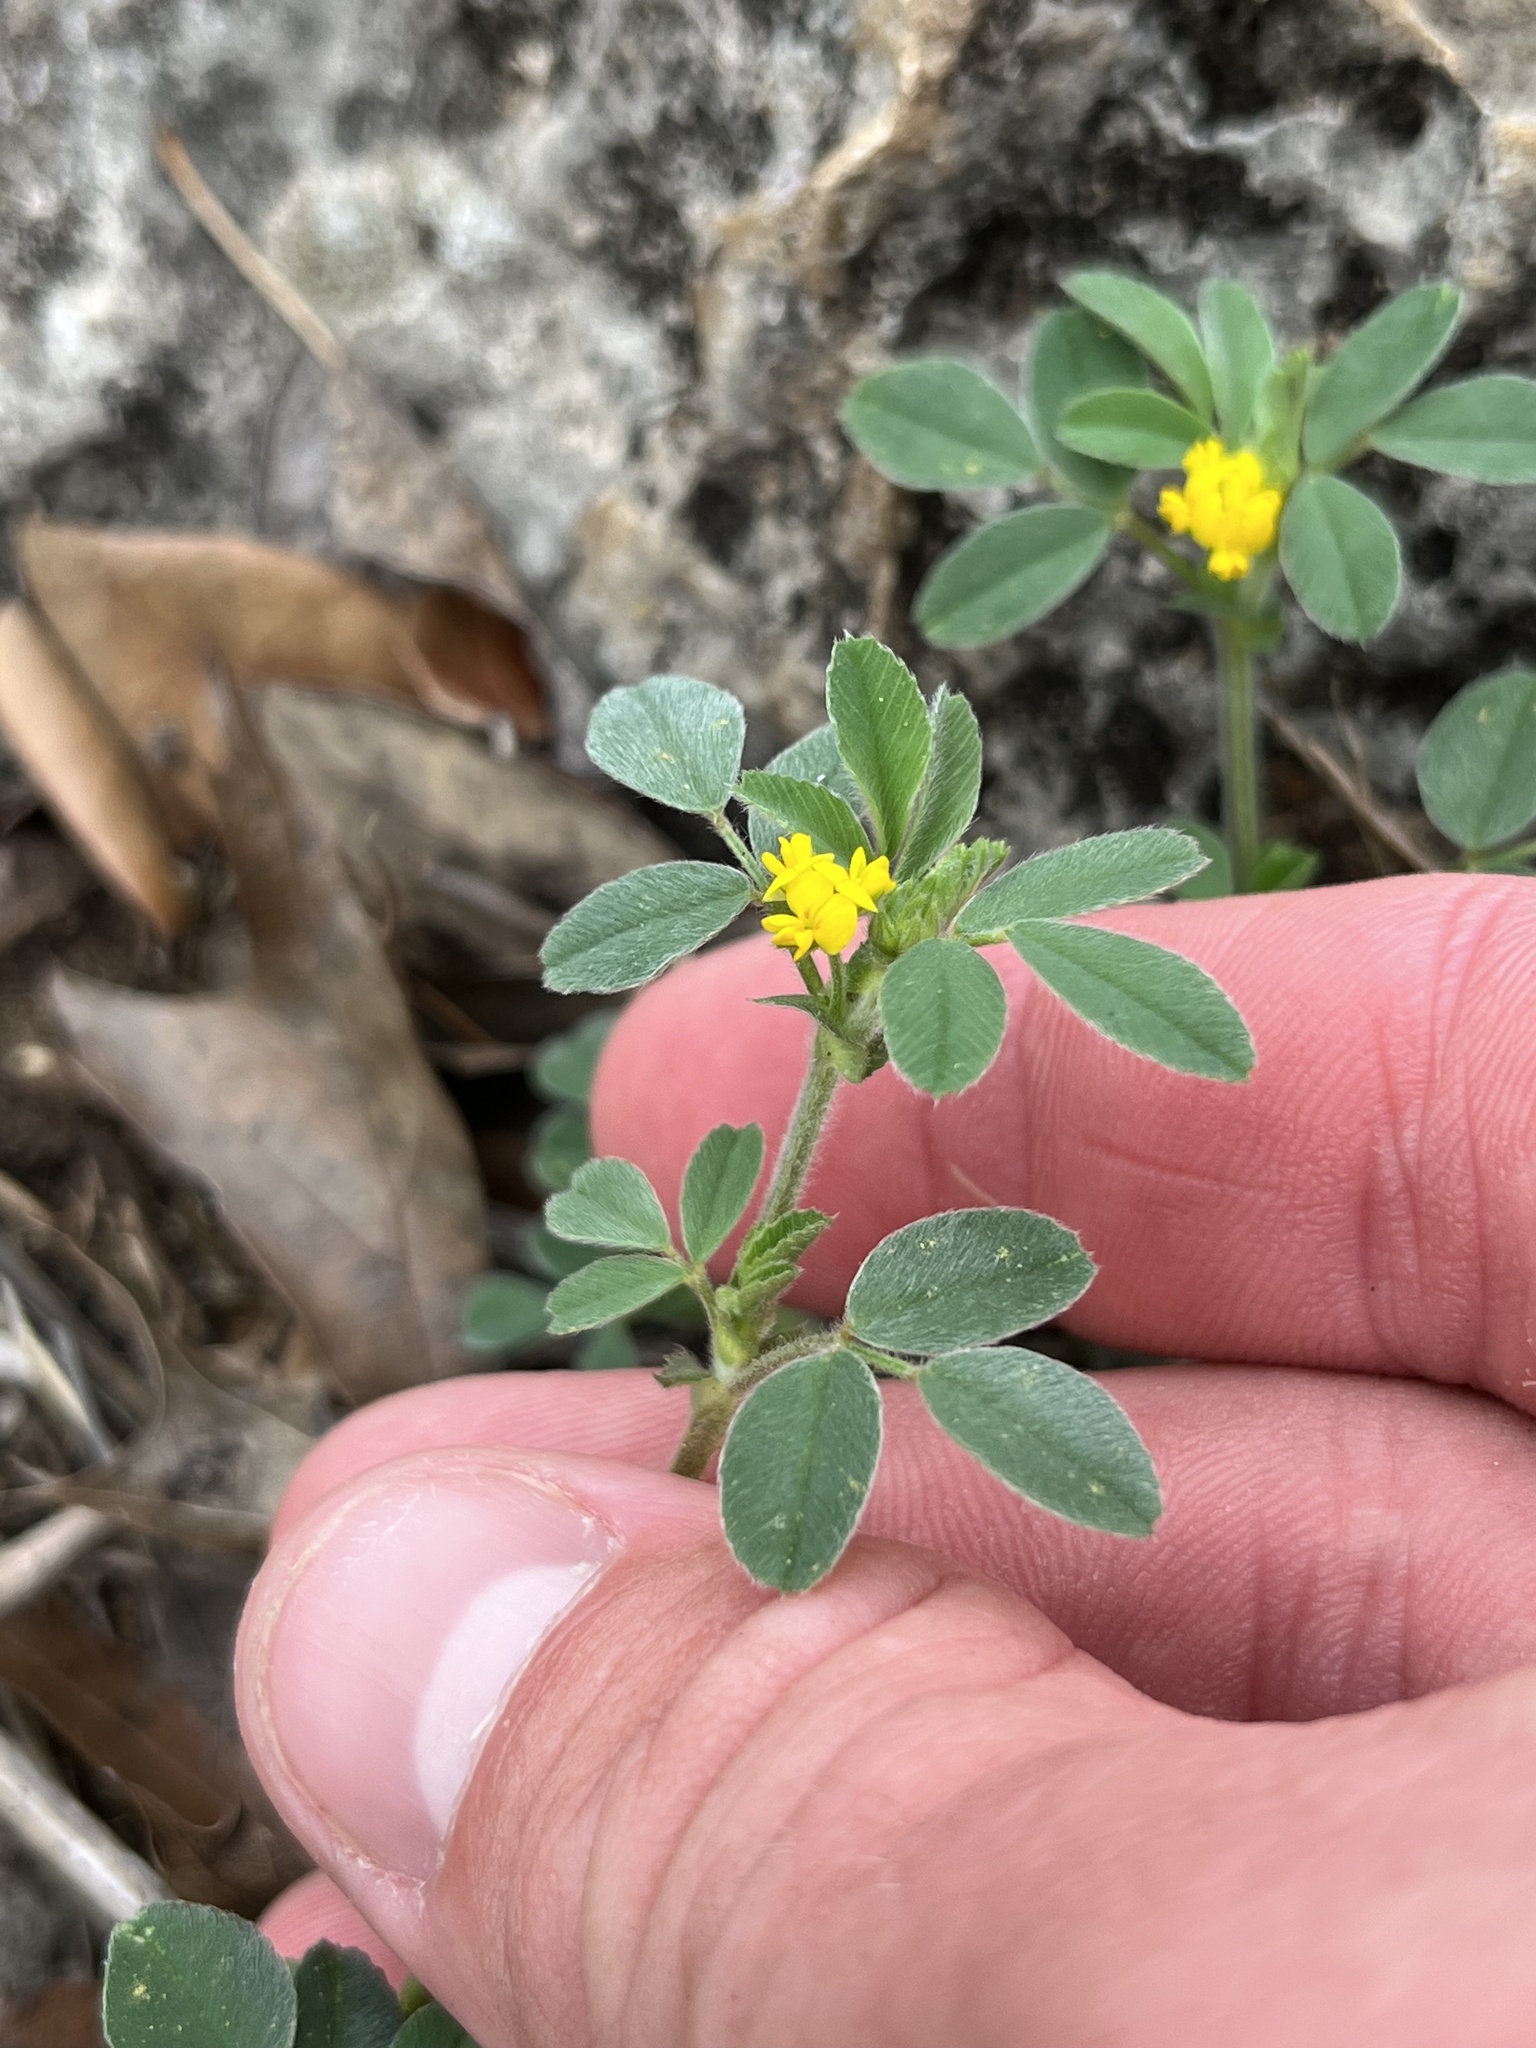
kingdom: Plantae
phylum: Tracheophyta
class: Magnoliopsida
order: Fabales
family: Fabaceae
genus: Medicago
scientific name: Medicago minima
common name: Little bur-clover
